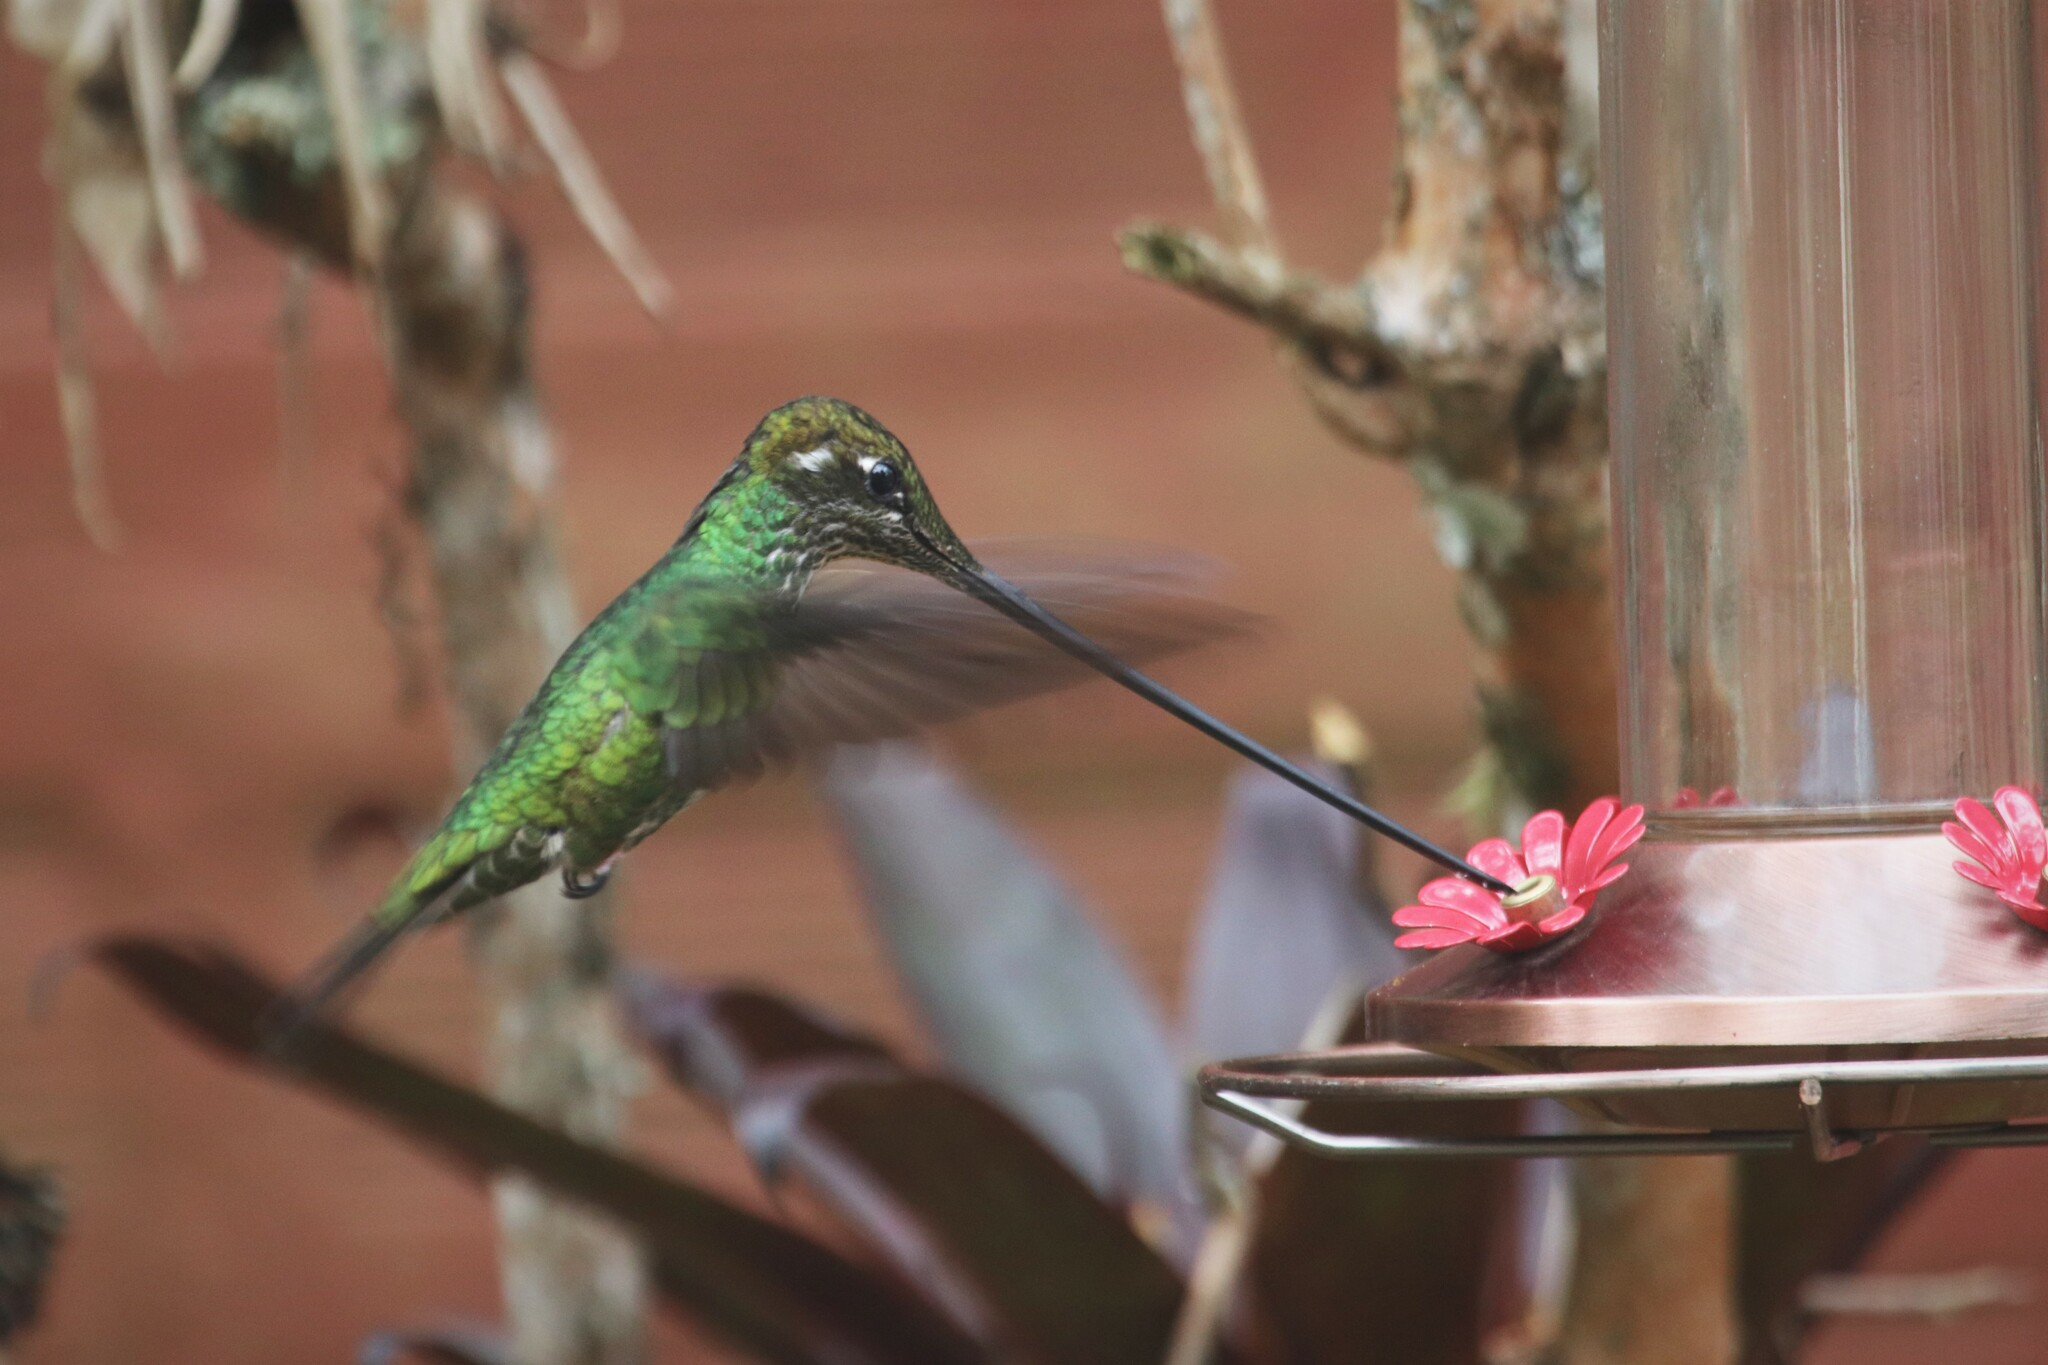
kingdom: Animalia
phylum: Chordata
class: Aves
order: Apodiformes
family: Trochilidae
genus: Ensifera
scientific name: Ensifera ensifera
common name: Sword-billed hummingbird
